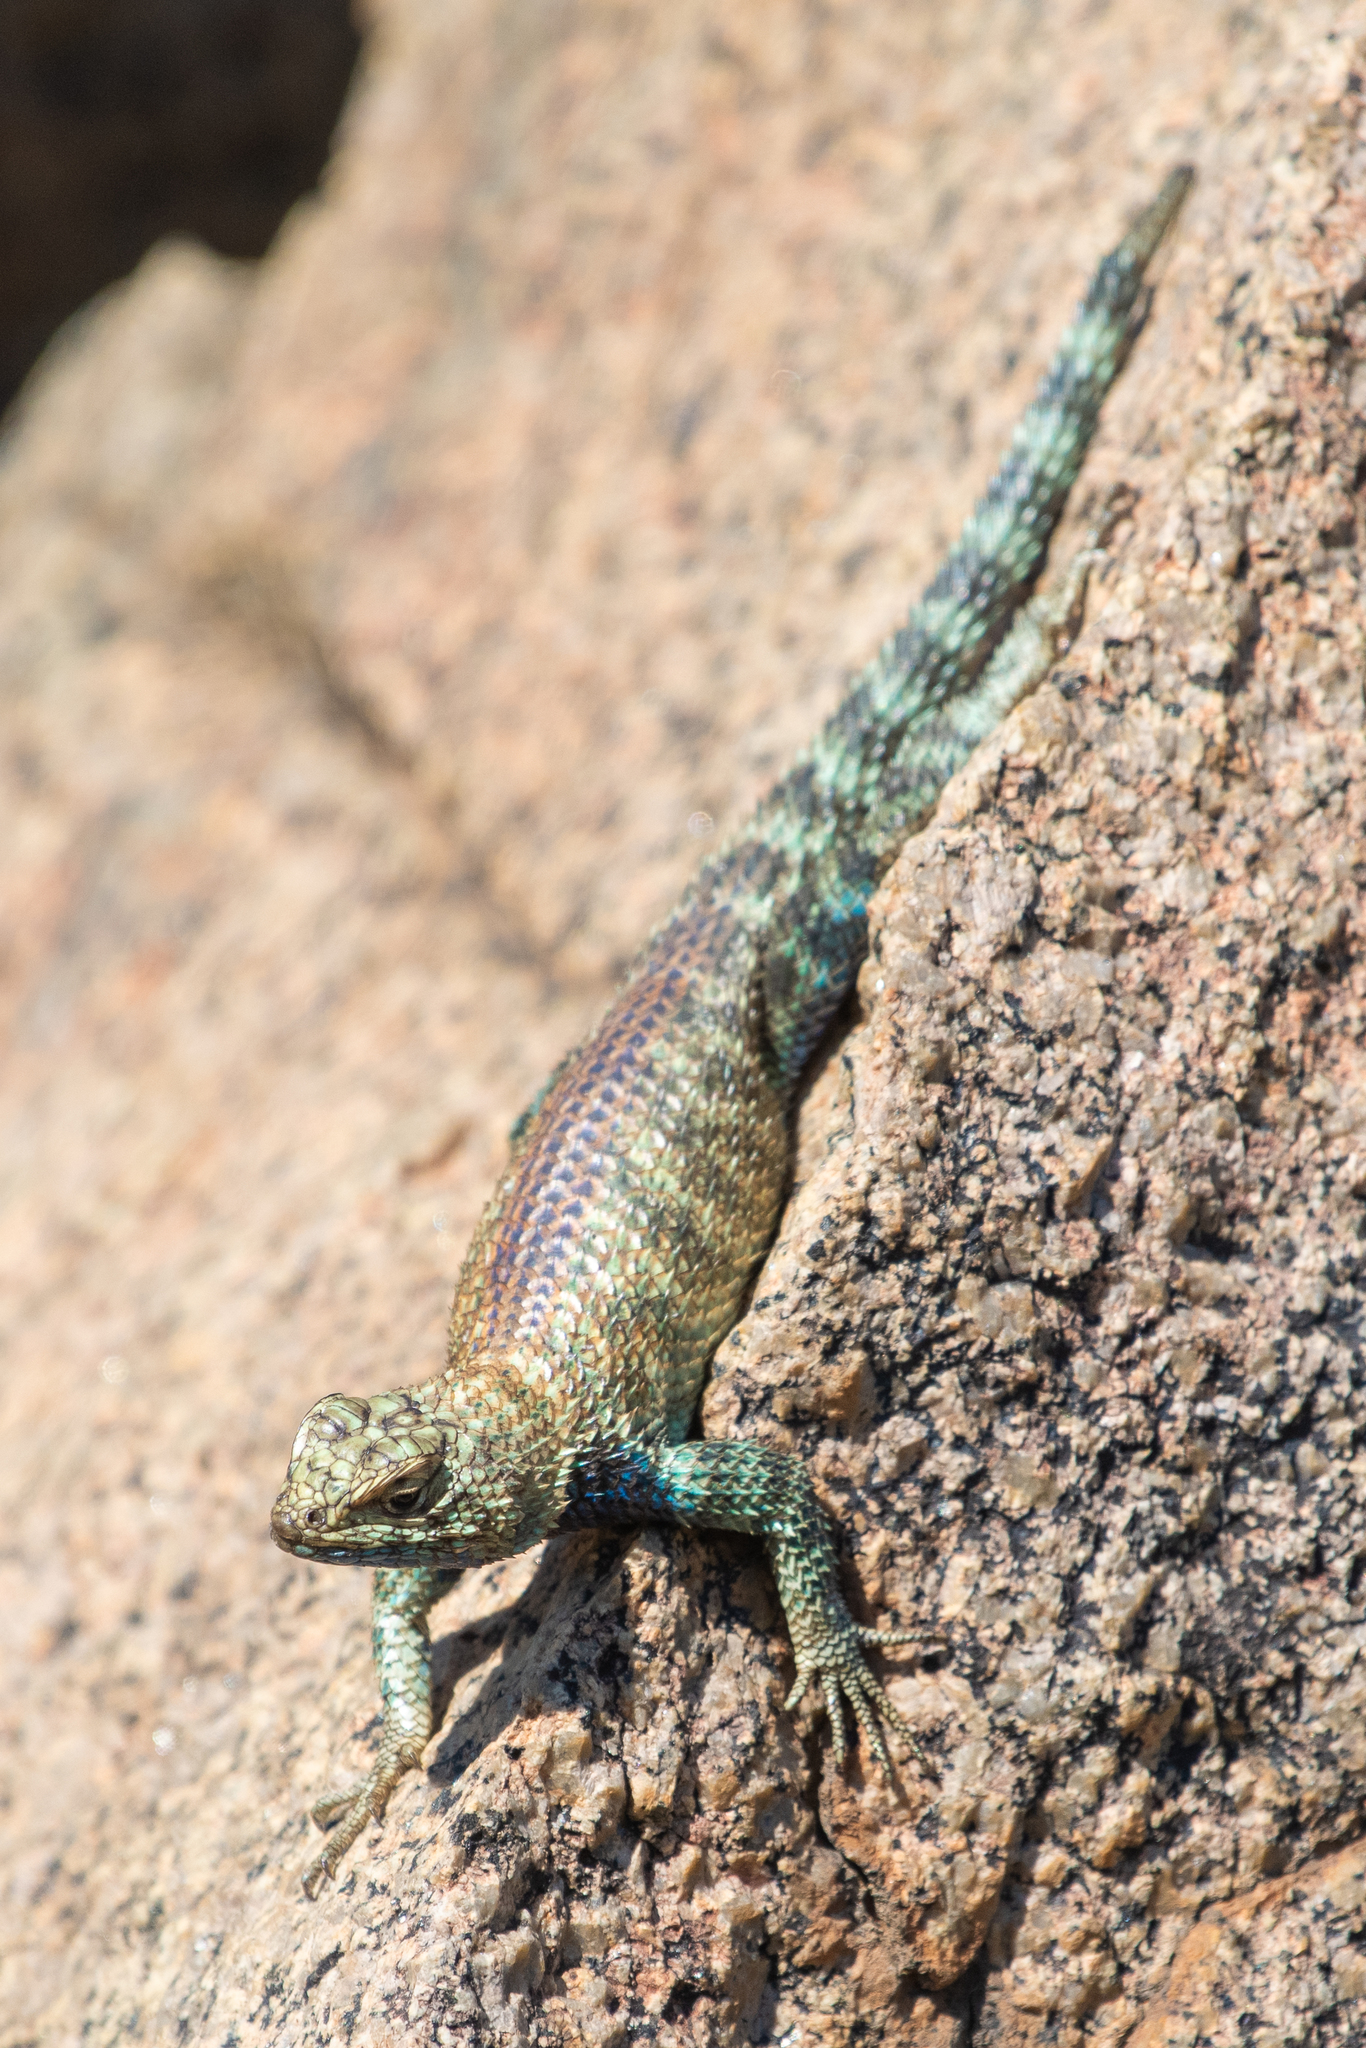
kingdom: Animalia
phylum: Chordata
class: Squamata
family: Phrynosomatidae
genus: Sceloporus
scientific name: Sceloporus orcutti
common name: Granite spiny lizard
